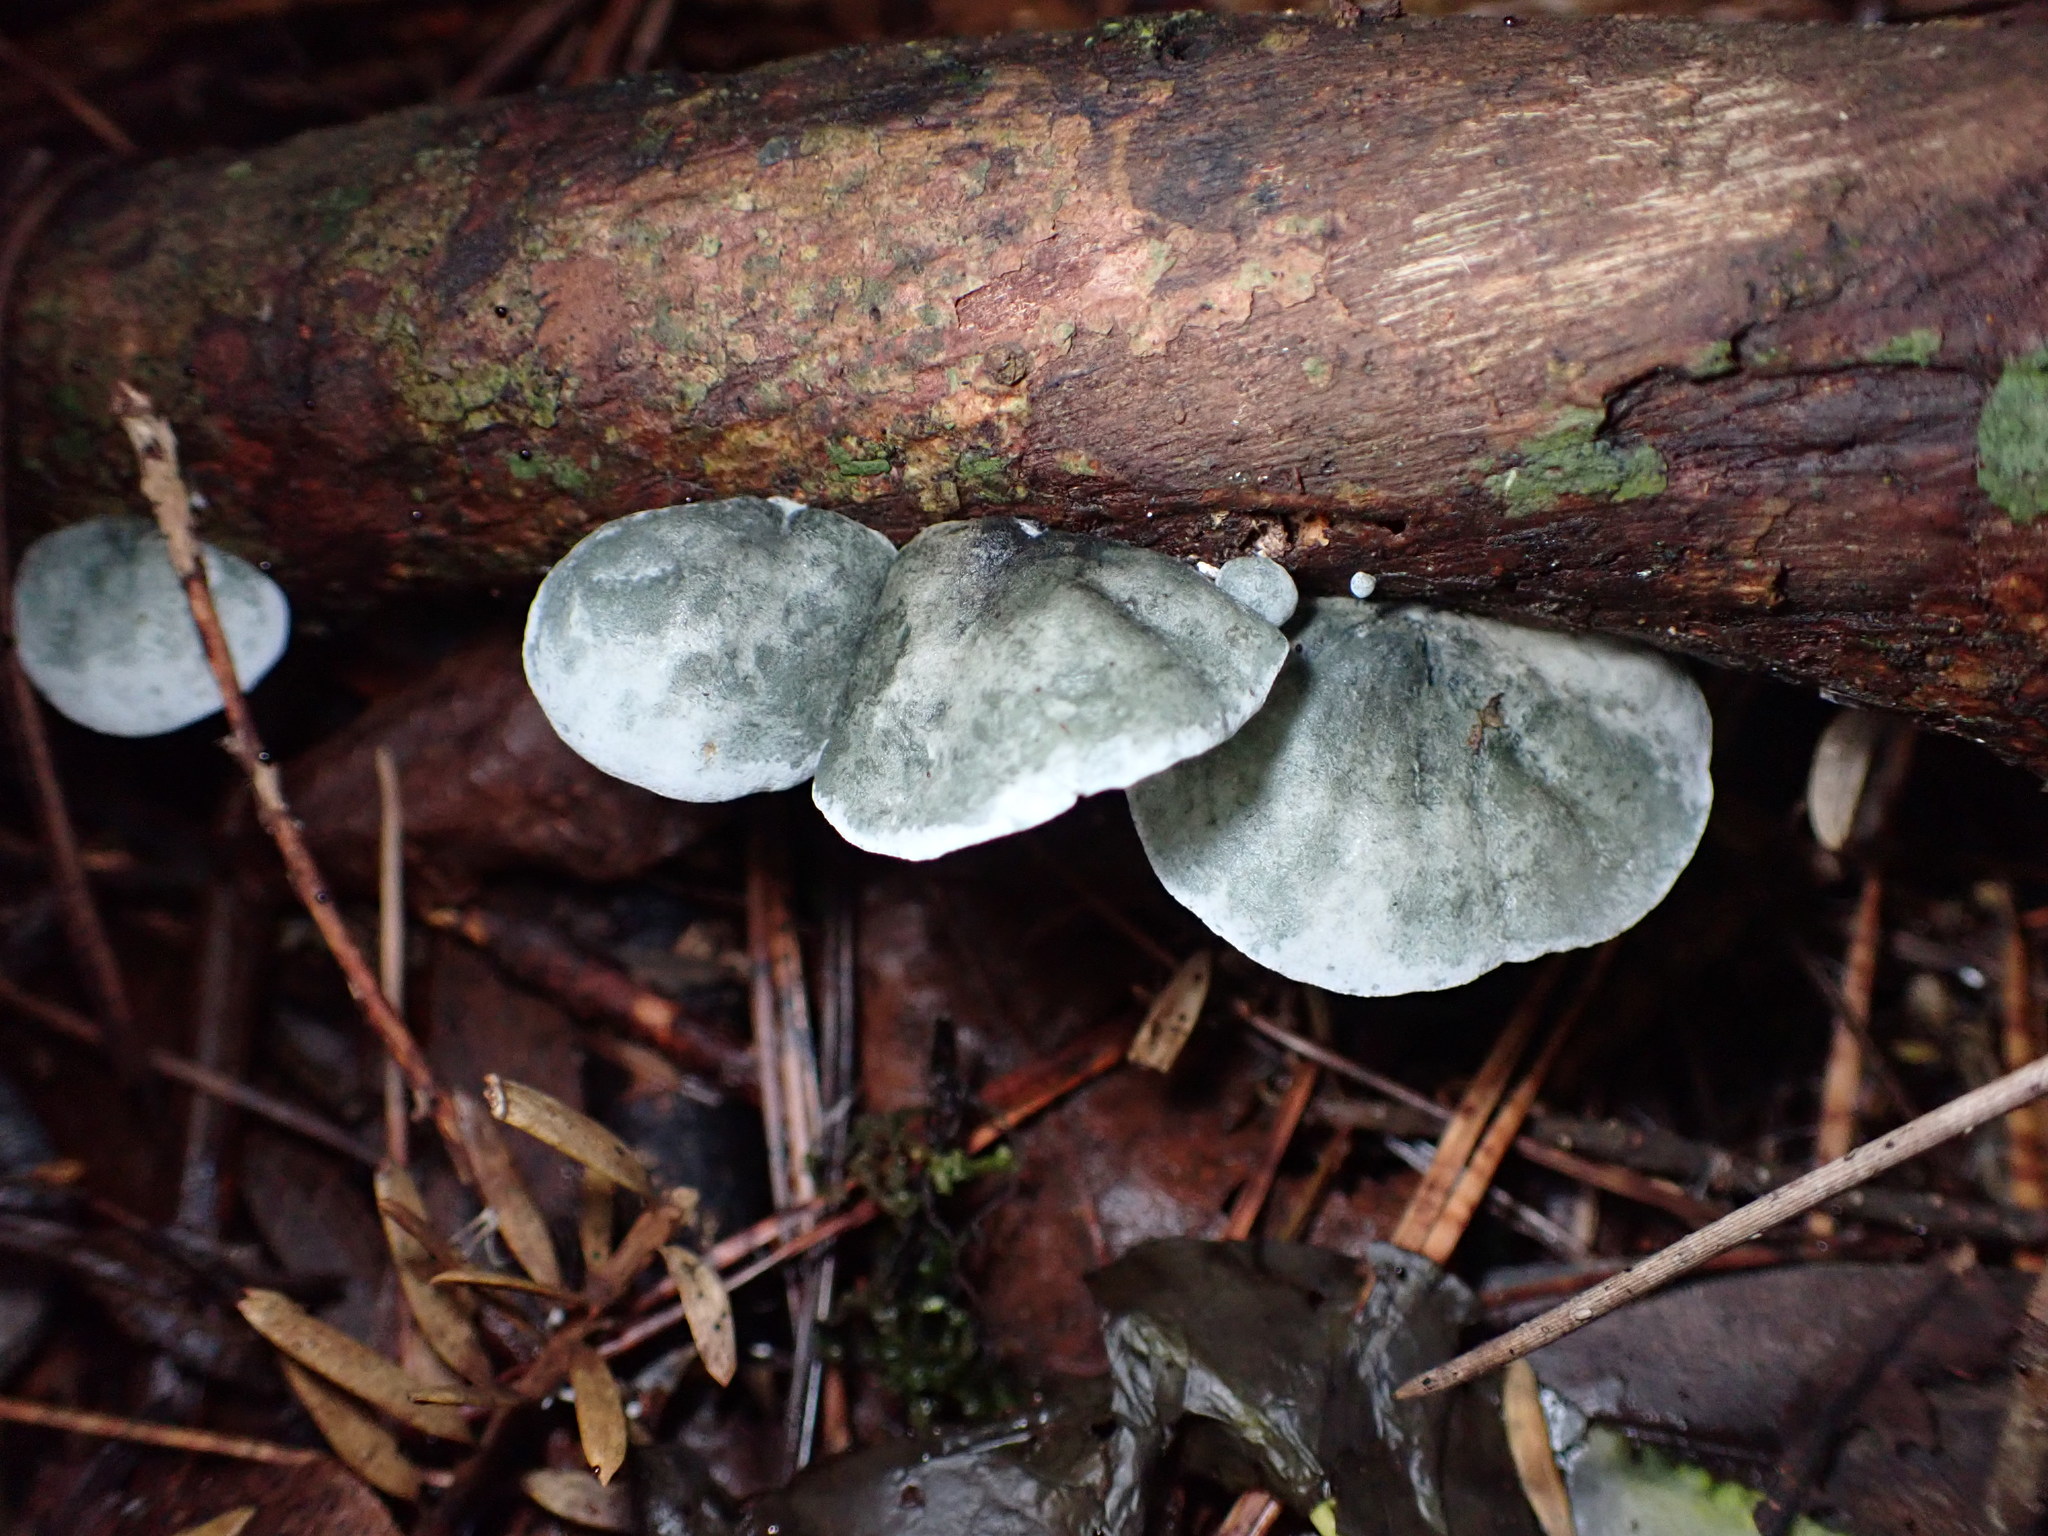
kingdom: Fungi
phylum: Basidiomycota
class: Agaricomycetes
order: Agaricales
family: Marasmiaceae
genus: Campanella
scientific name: Campanella tristis
